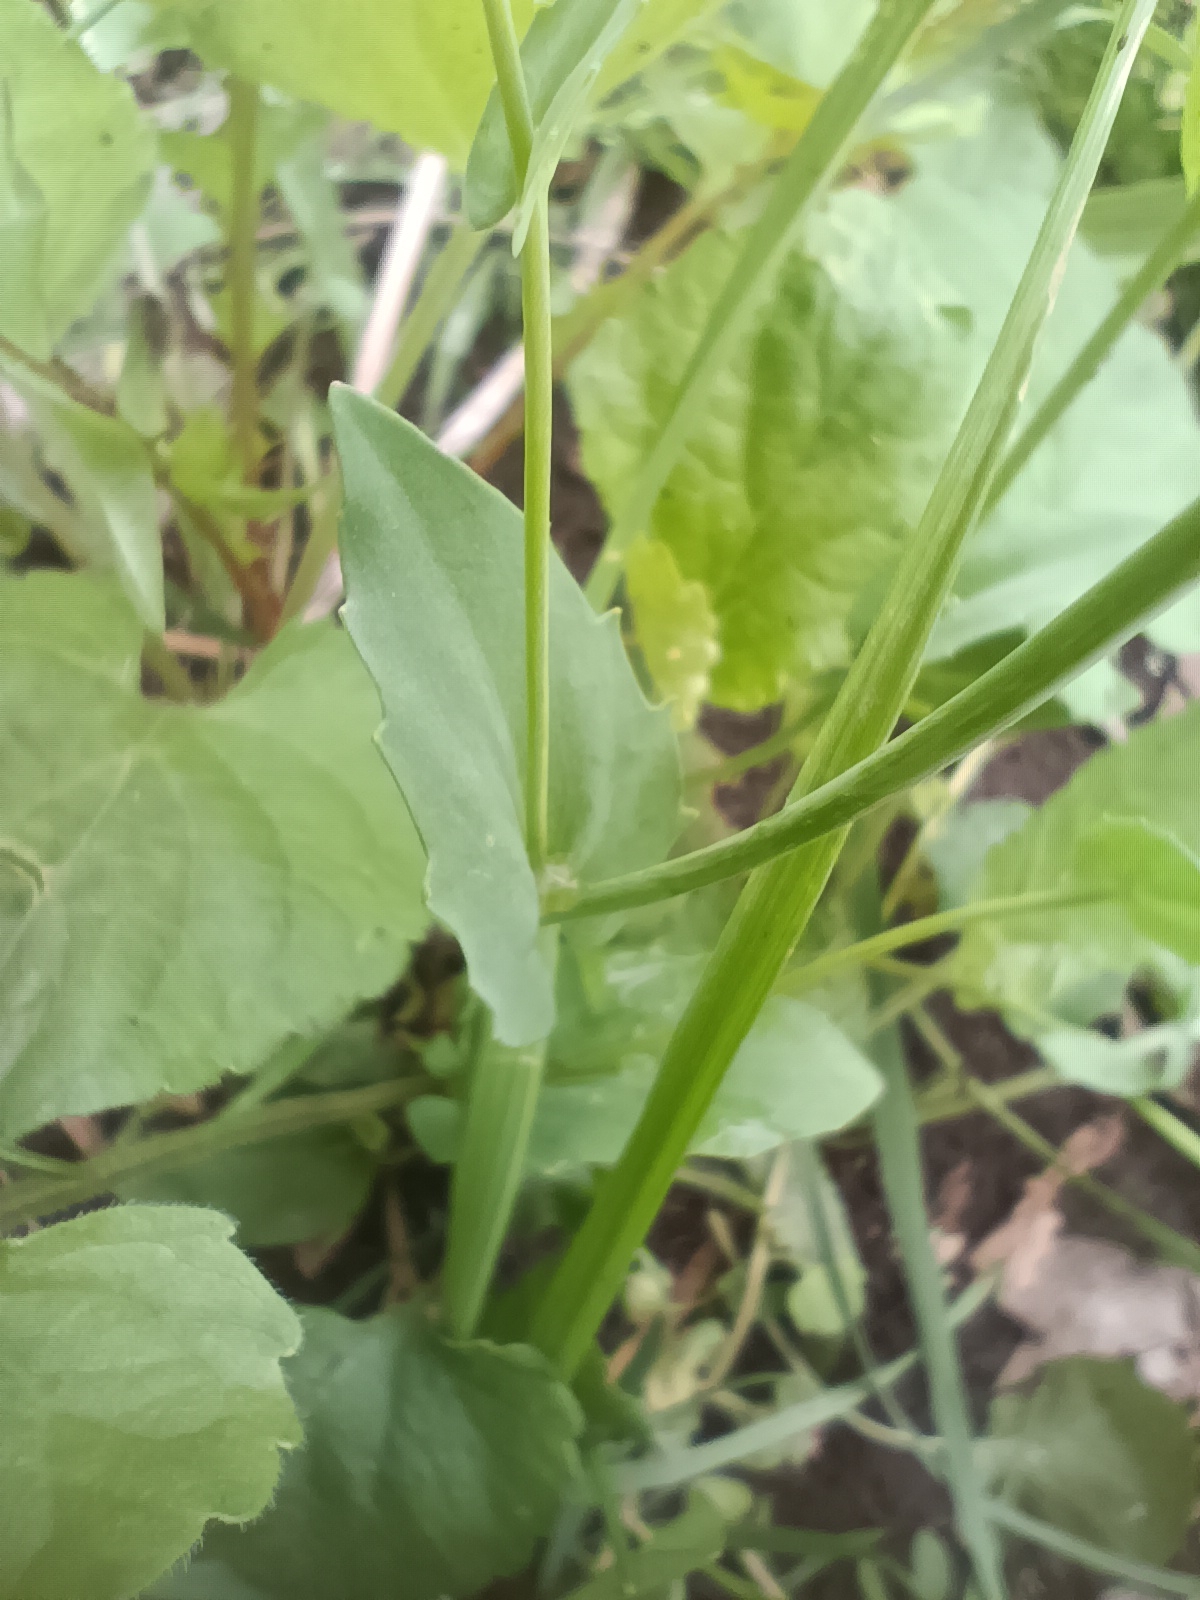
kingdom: Plantae
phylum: Tracheophyta
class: Magnoliopsida
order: Brassicales
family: Brassicaceae
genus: Noccaea
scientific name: Noccaea perfoliata
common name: Perfoliate pennycress
